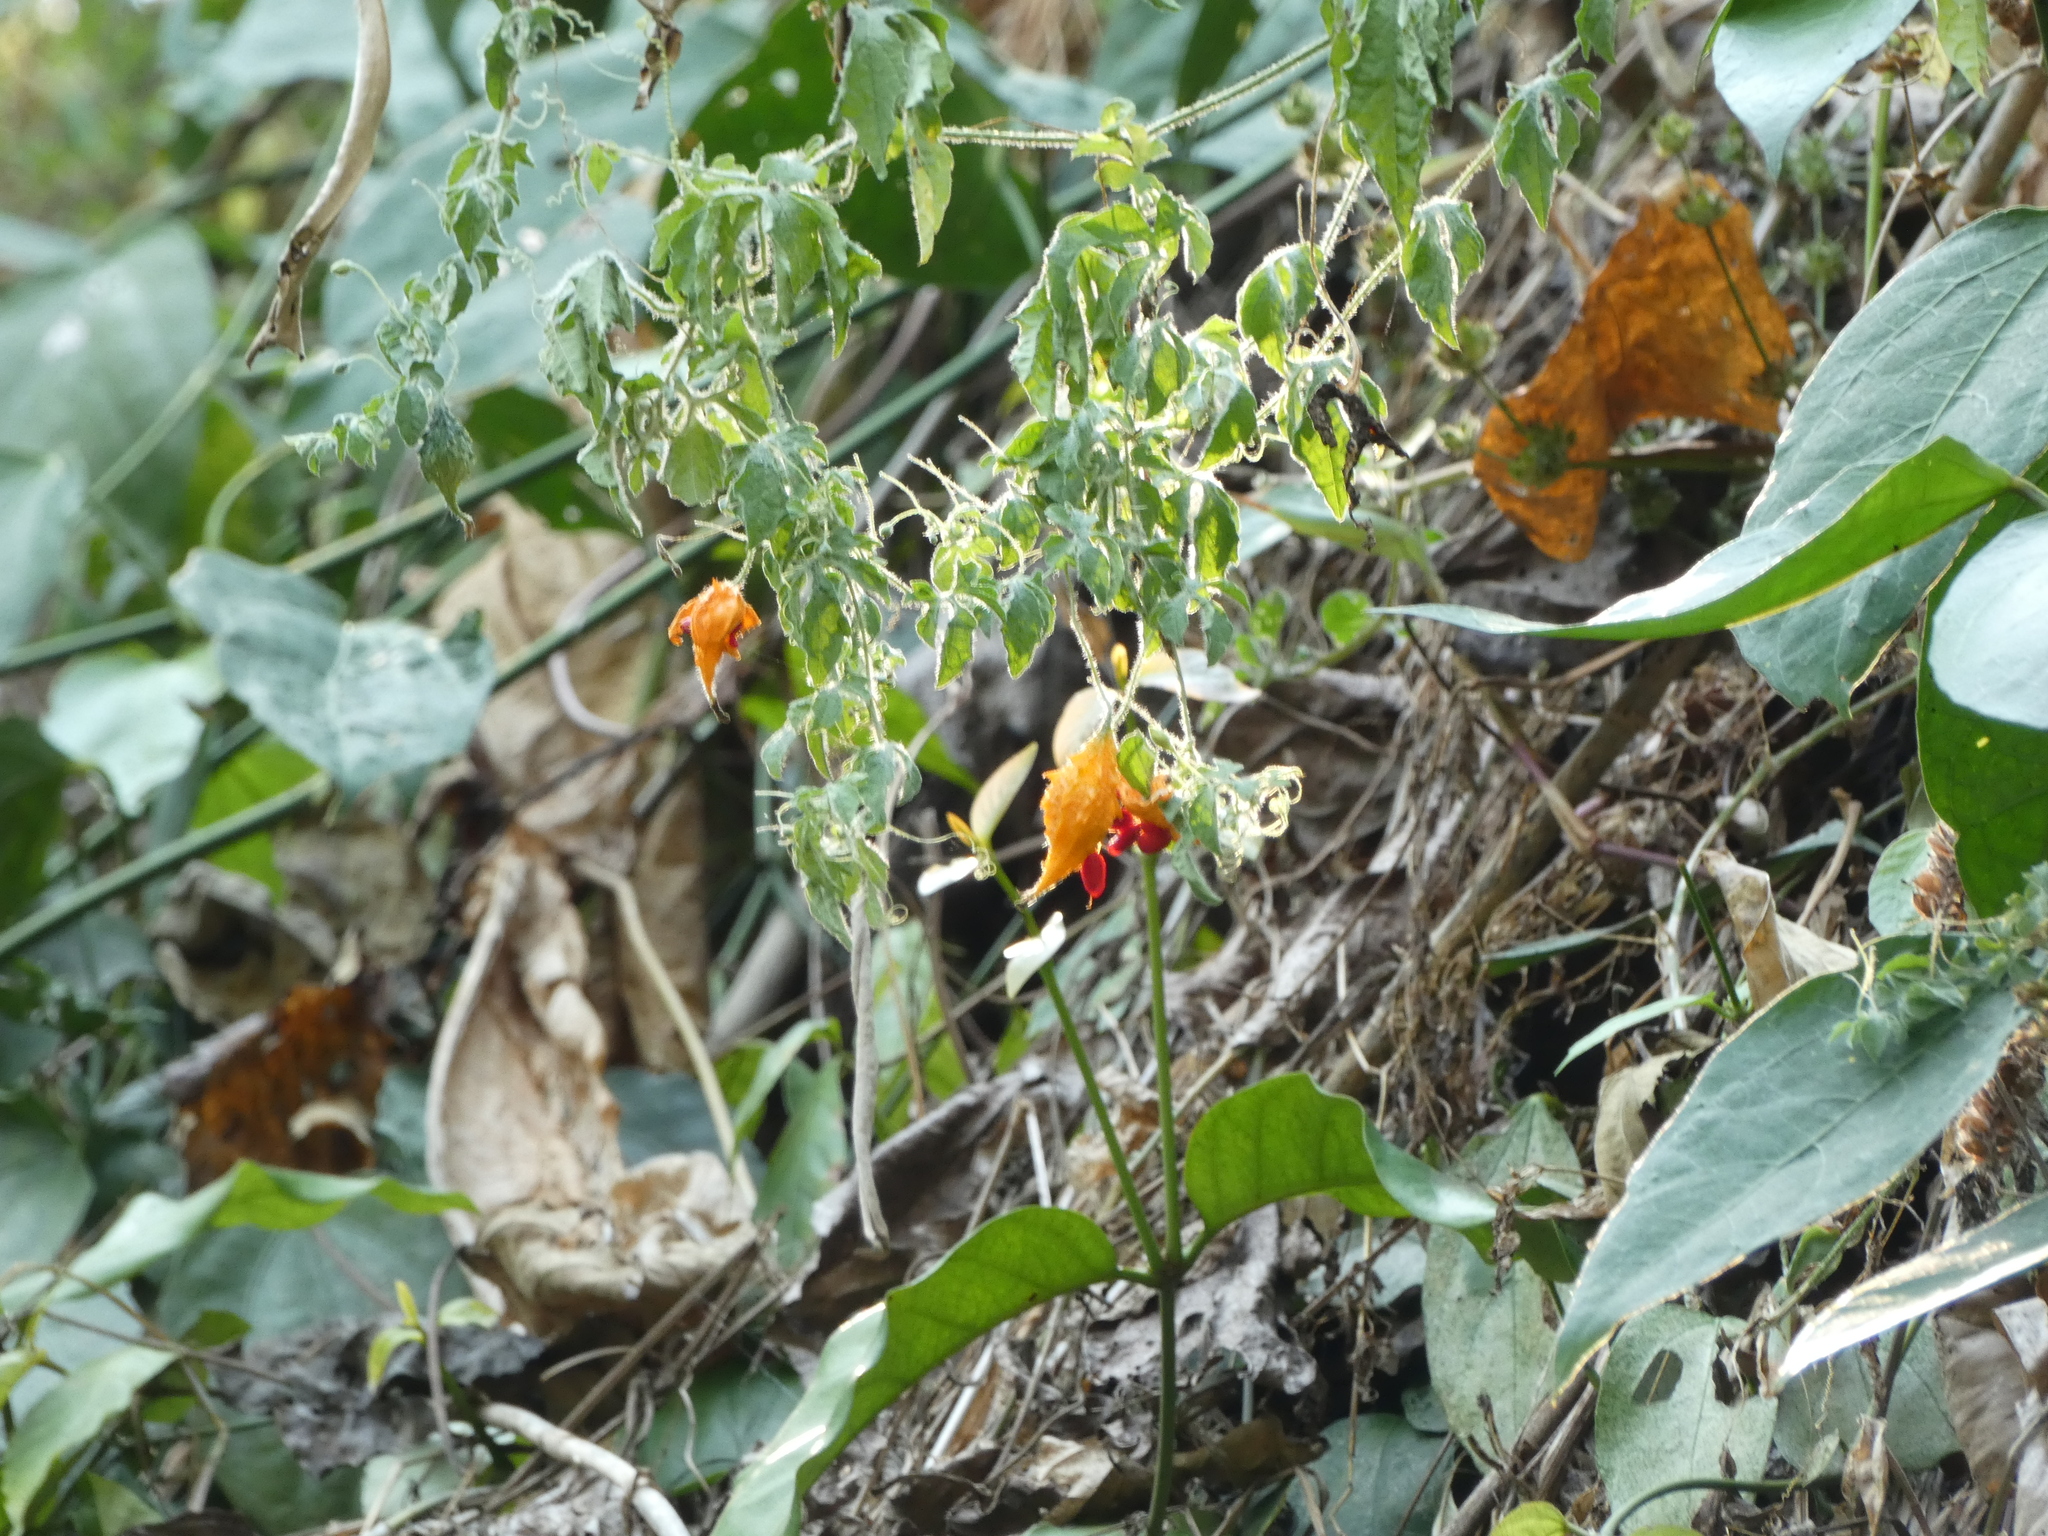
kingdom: Plantae
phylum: Tracheophyta
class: Magnoliopsida
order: Cucurbitales
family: Cucurbitaceae
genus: Momordica
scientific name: Momordica charantia
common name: Balsampear
